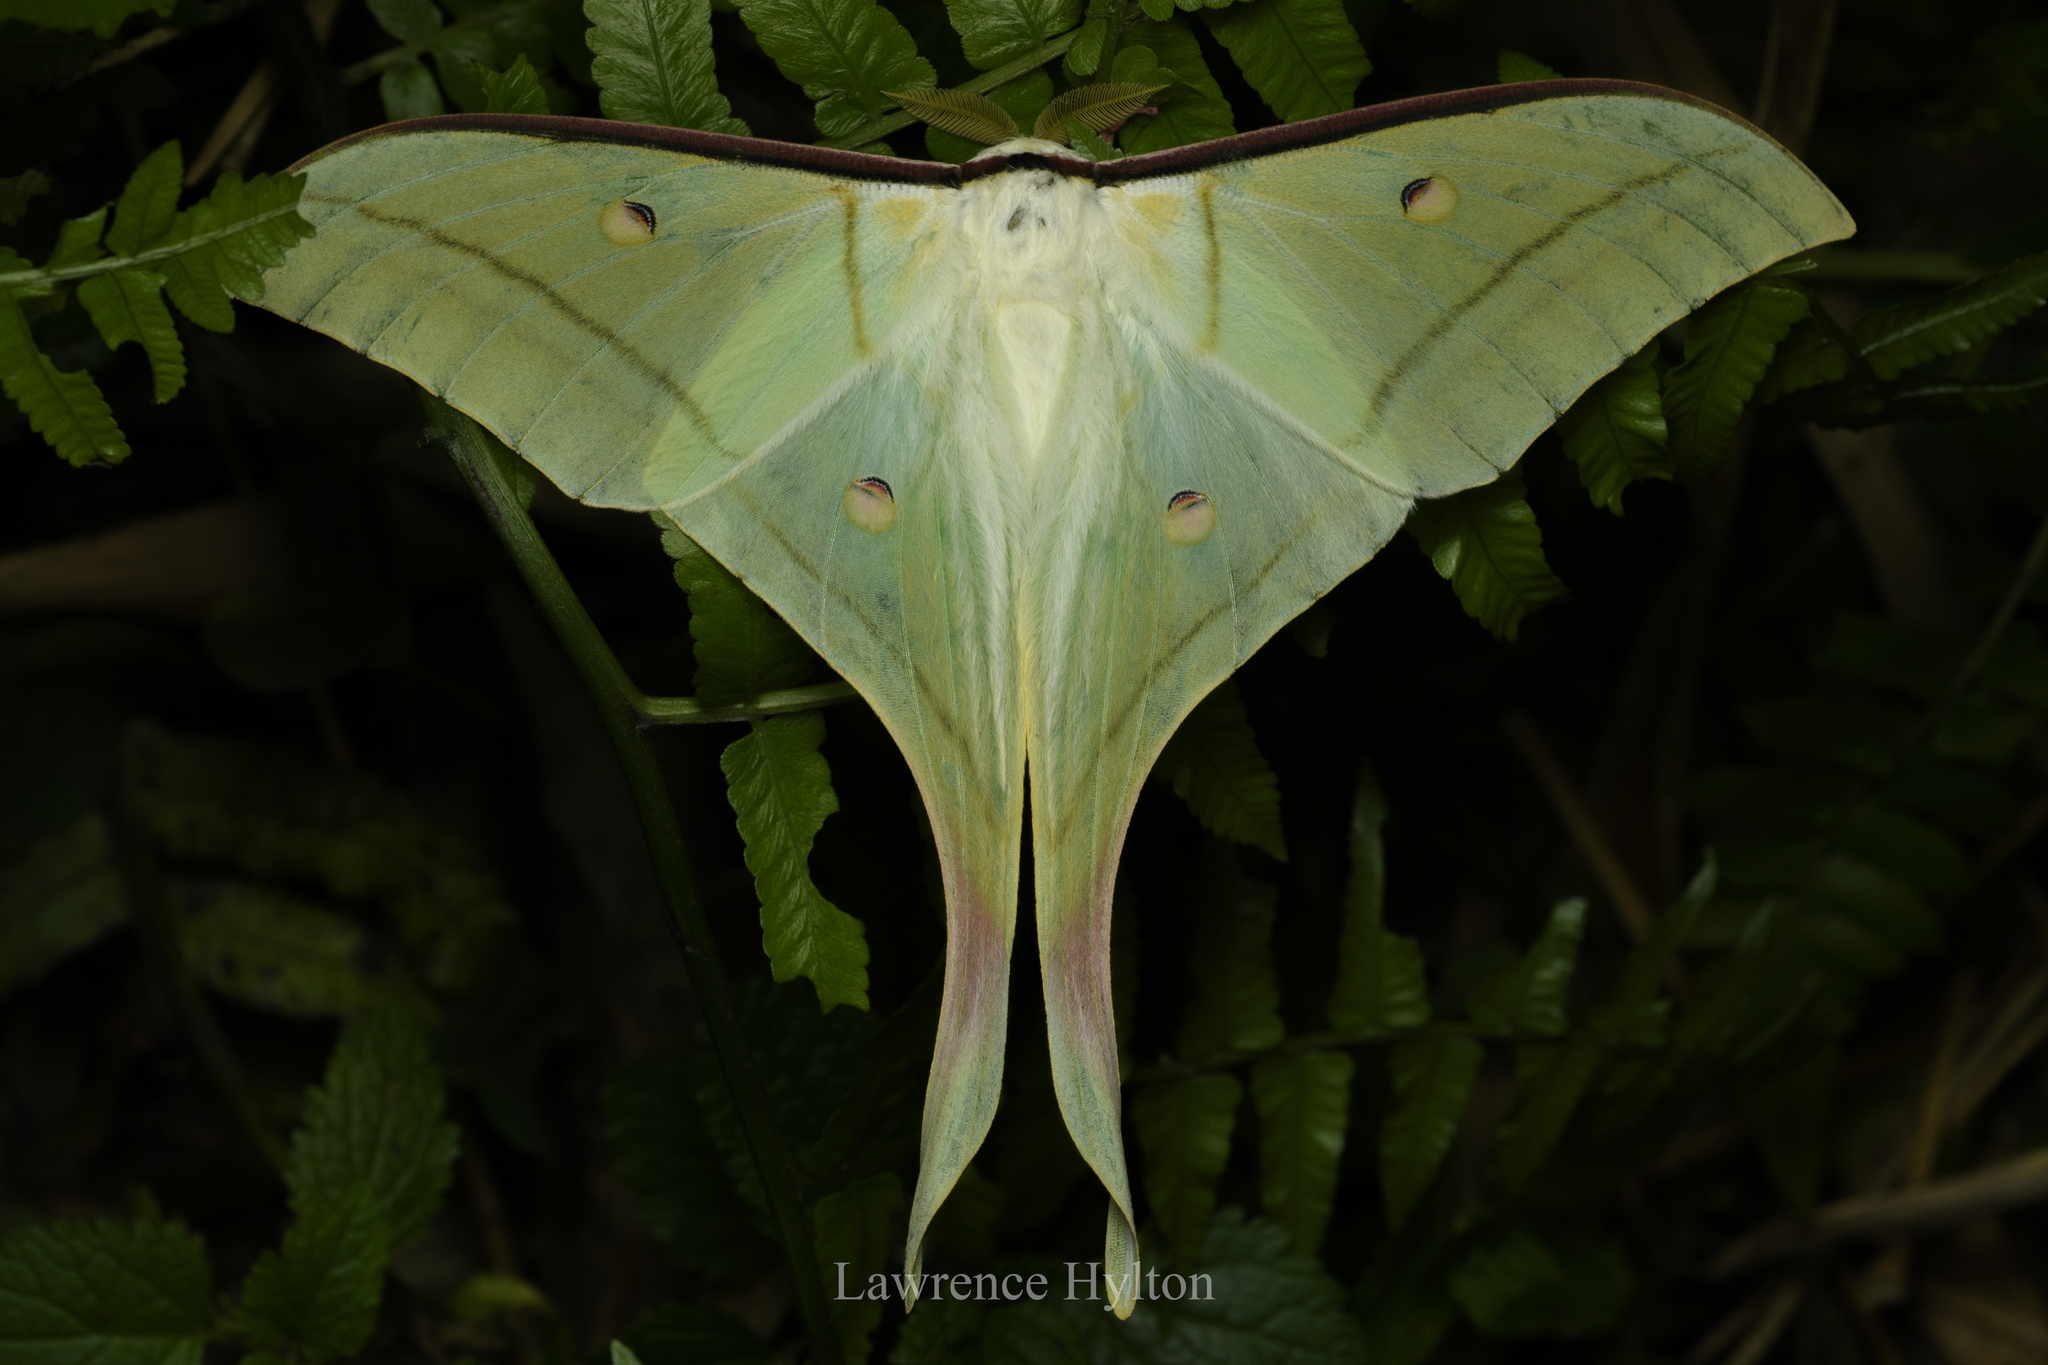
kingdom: Animalia
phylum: Arthropoda
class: Insecta
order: Lepidoptera
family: Saturniidae
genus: Actias
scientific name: Actias ningpoana
